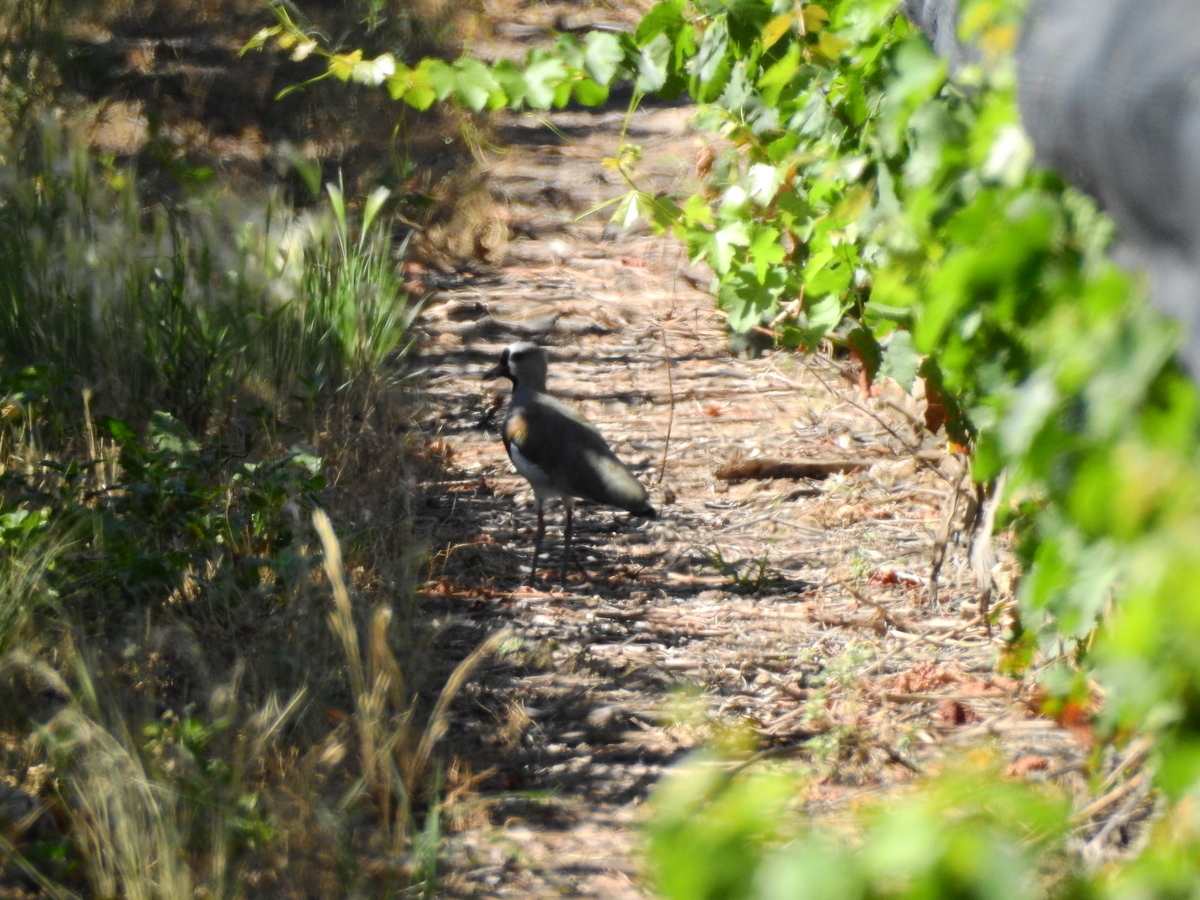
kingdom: Animalia
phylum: Chordata
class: Aves
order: Charadriiformes
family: Charadriidae
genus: Vanellus
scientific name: Vanellus chilensis
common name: Southern lapwing
